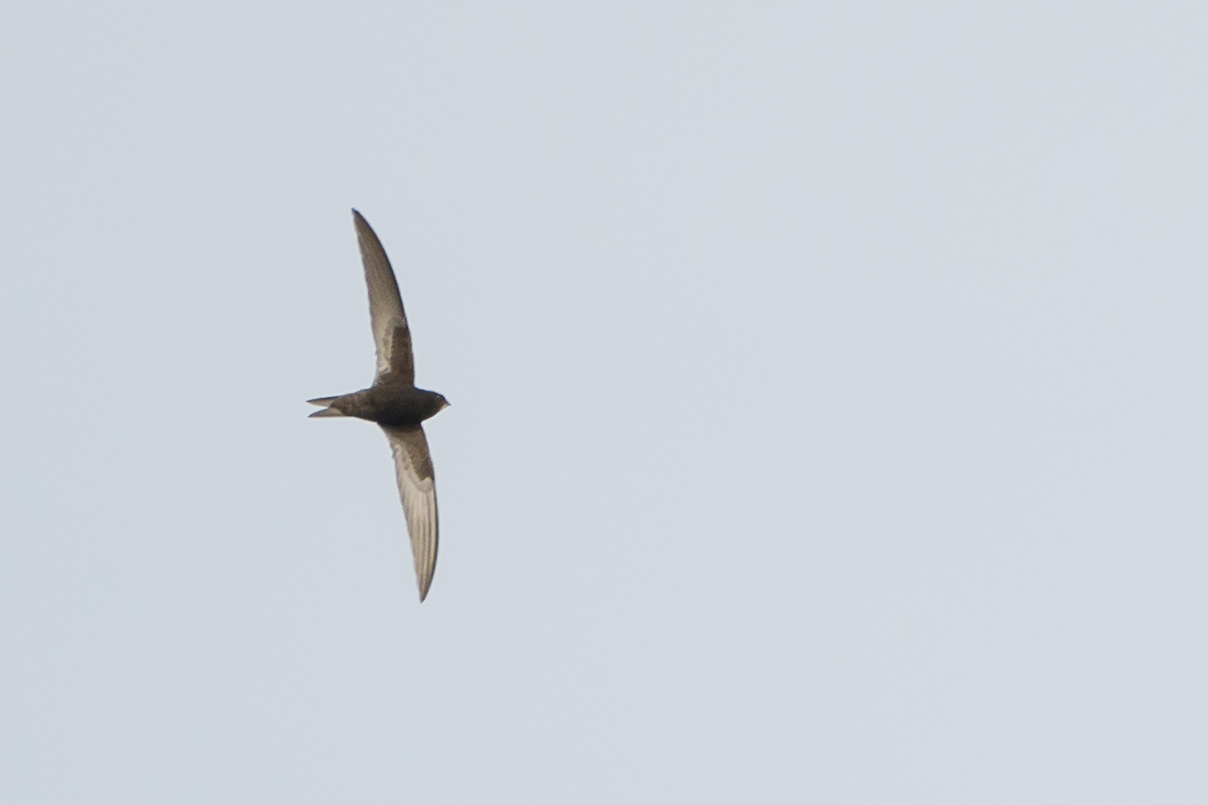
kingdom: Animalia
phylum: Chordata
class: Aves
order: Apodiformes
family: Apodidae
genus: Apus
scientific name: Apus apus
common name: Common swift
